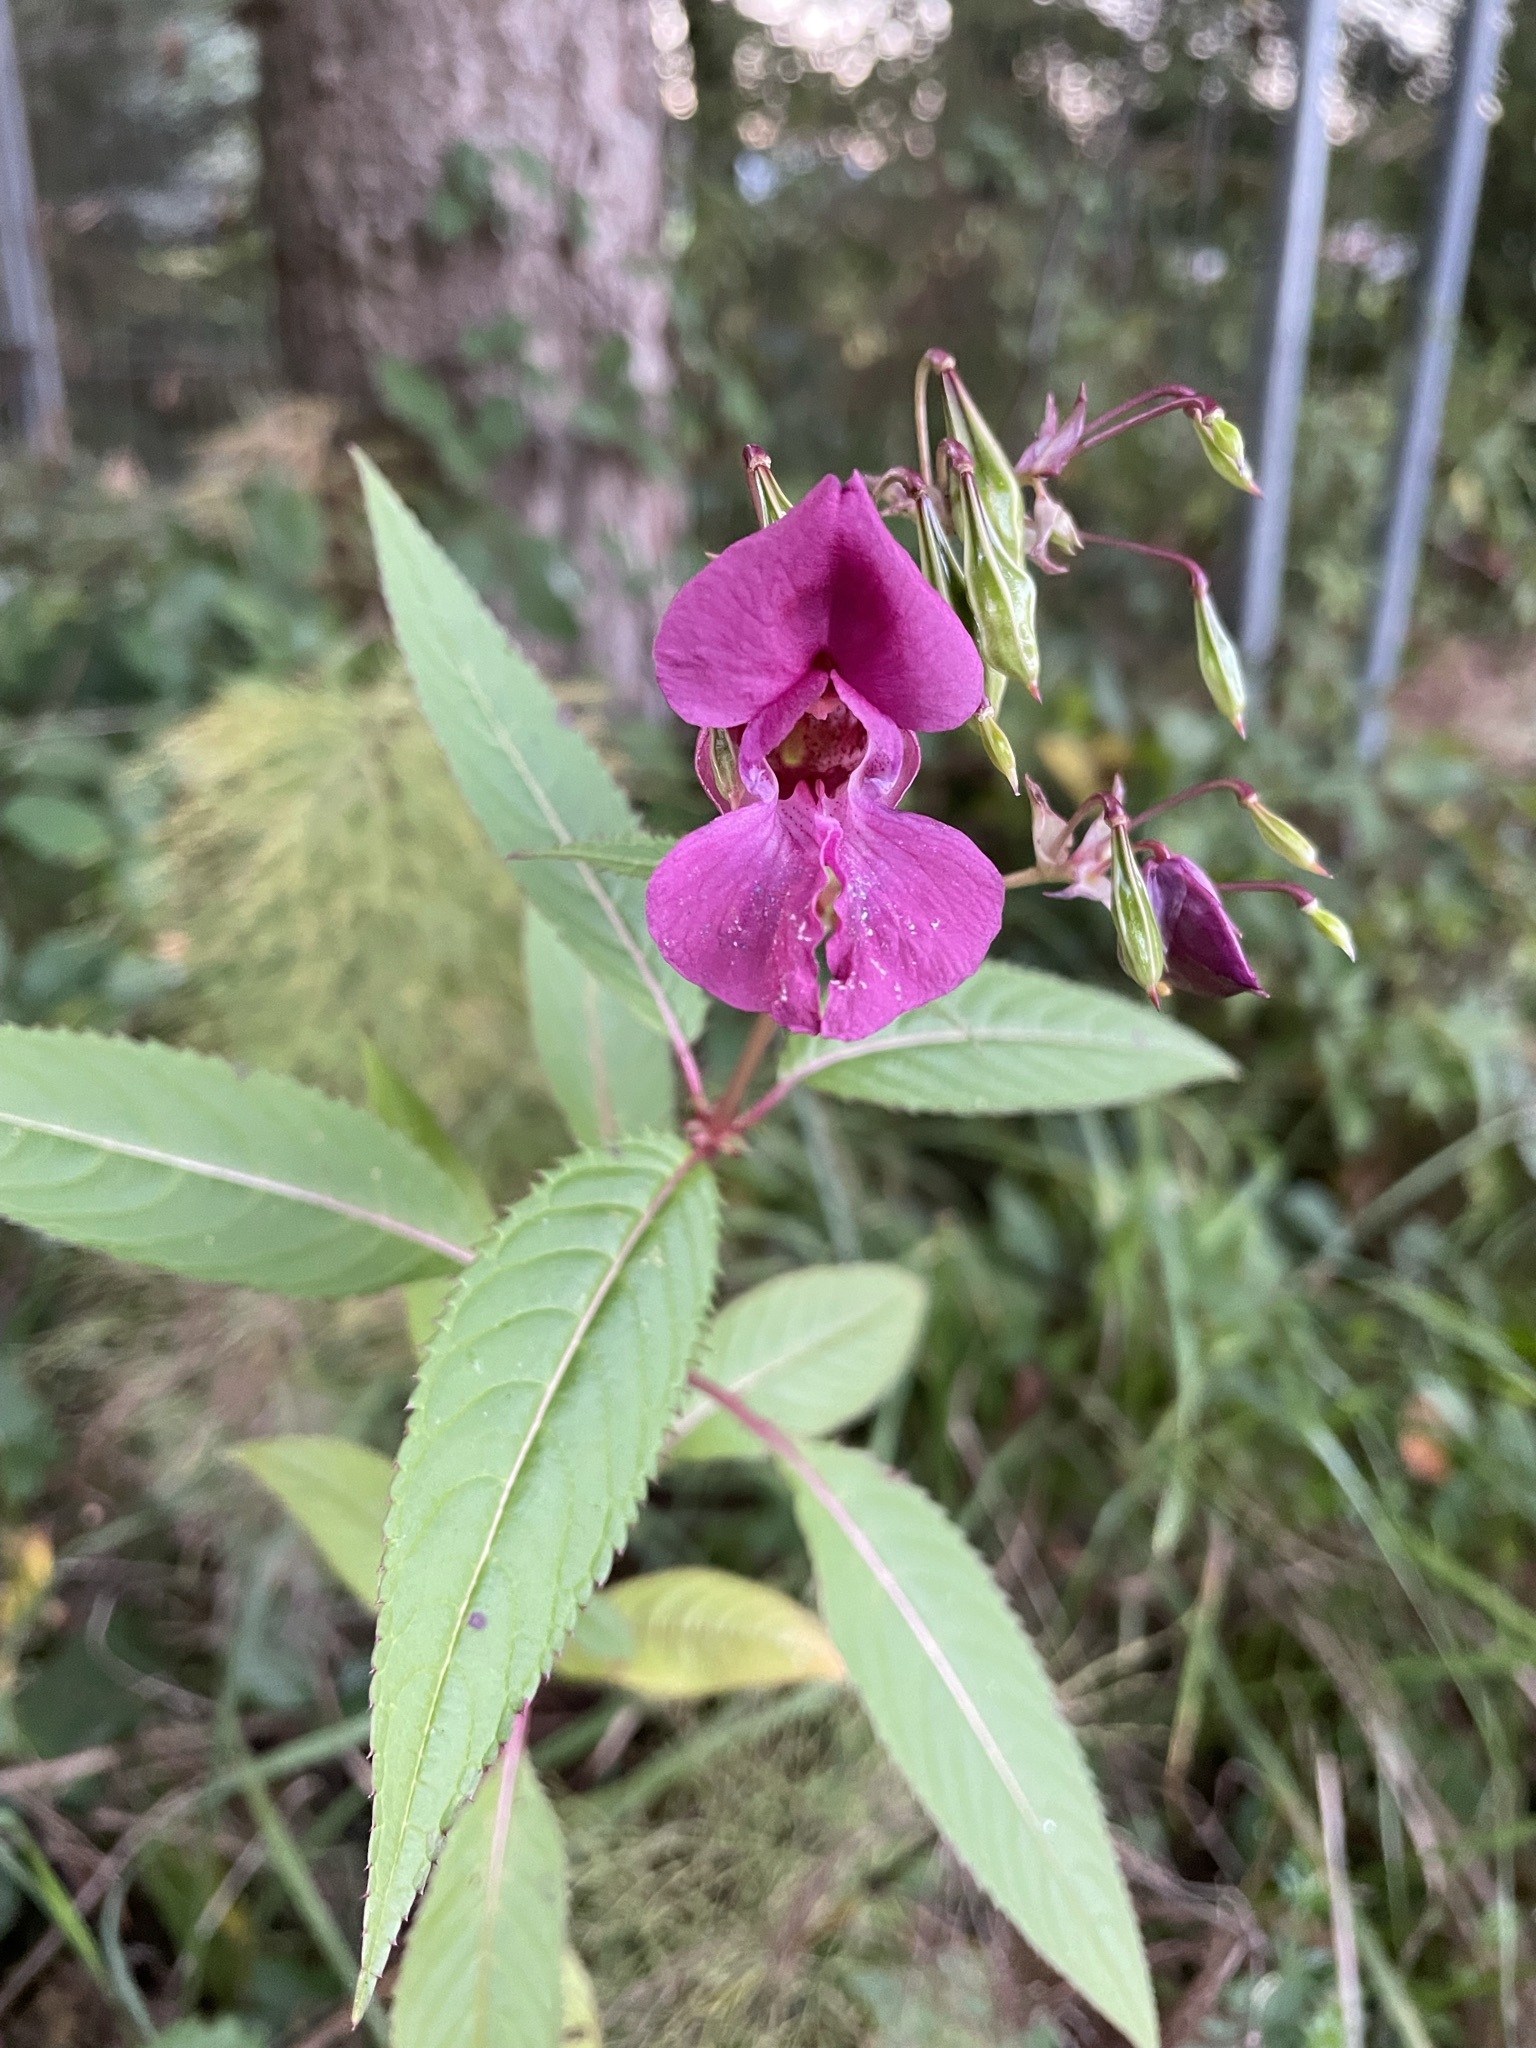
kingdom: Plantae
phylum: Tracheophyta
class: Magnoliopsida
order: Ericales
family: Balsaminaceae
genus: Impatiens
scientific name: Impatiens glandulifera
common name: Himalayan balsam
